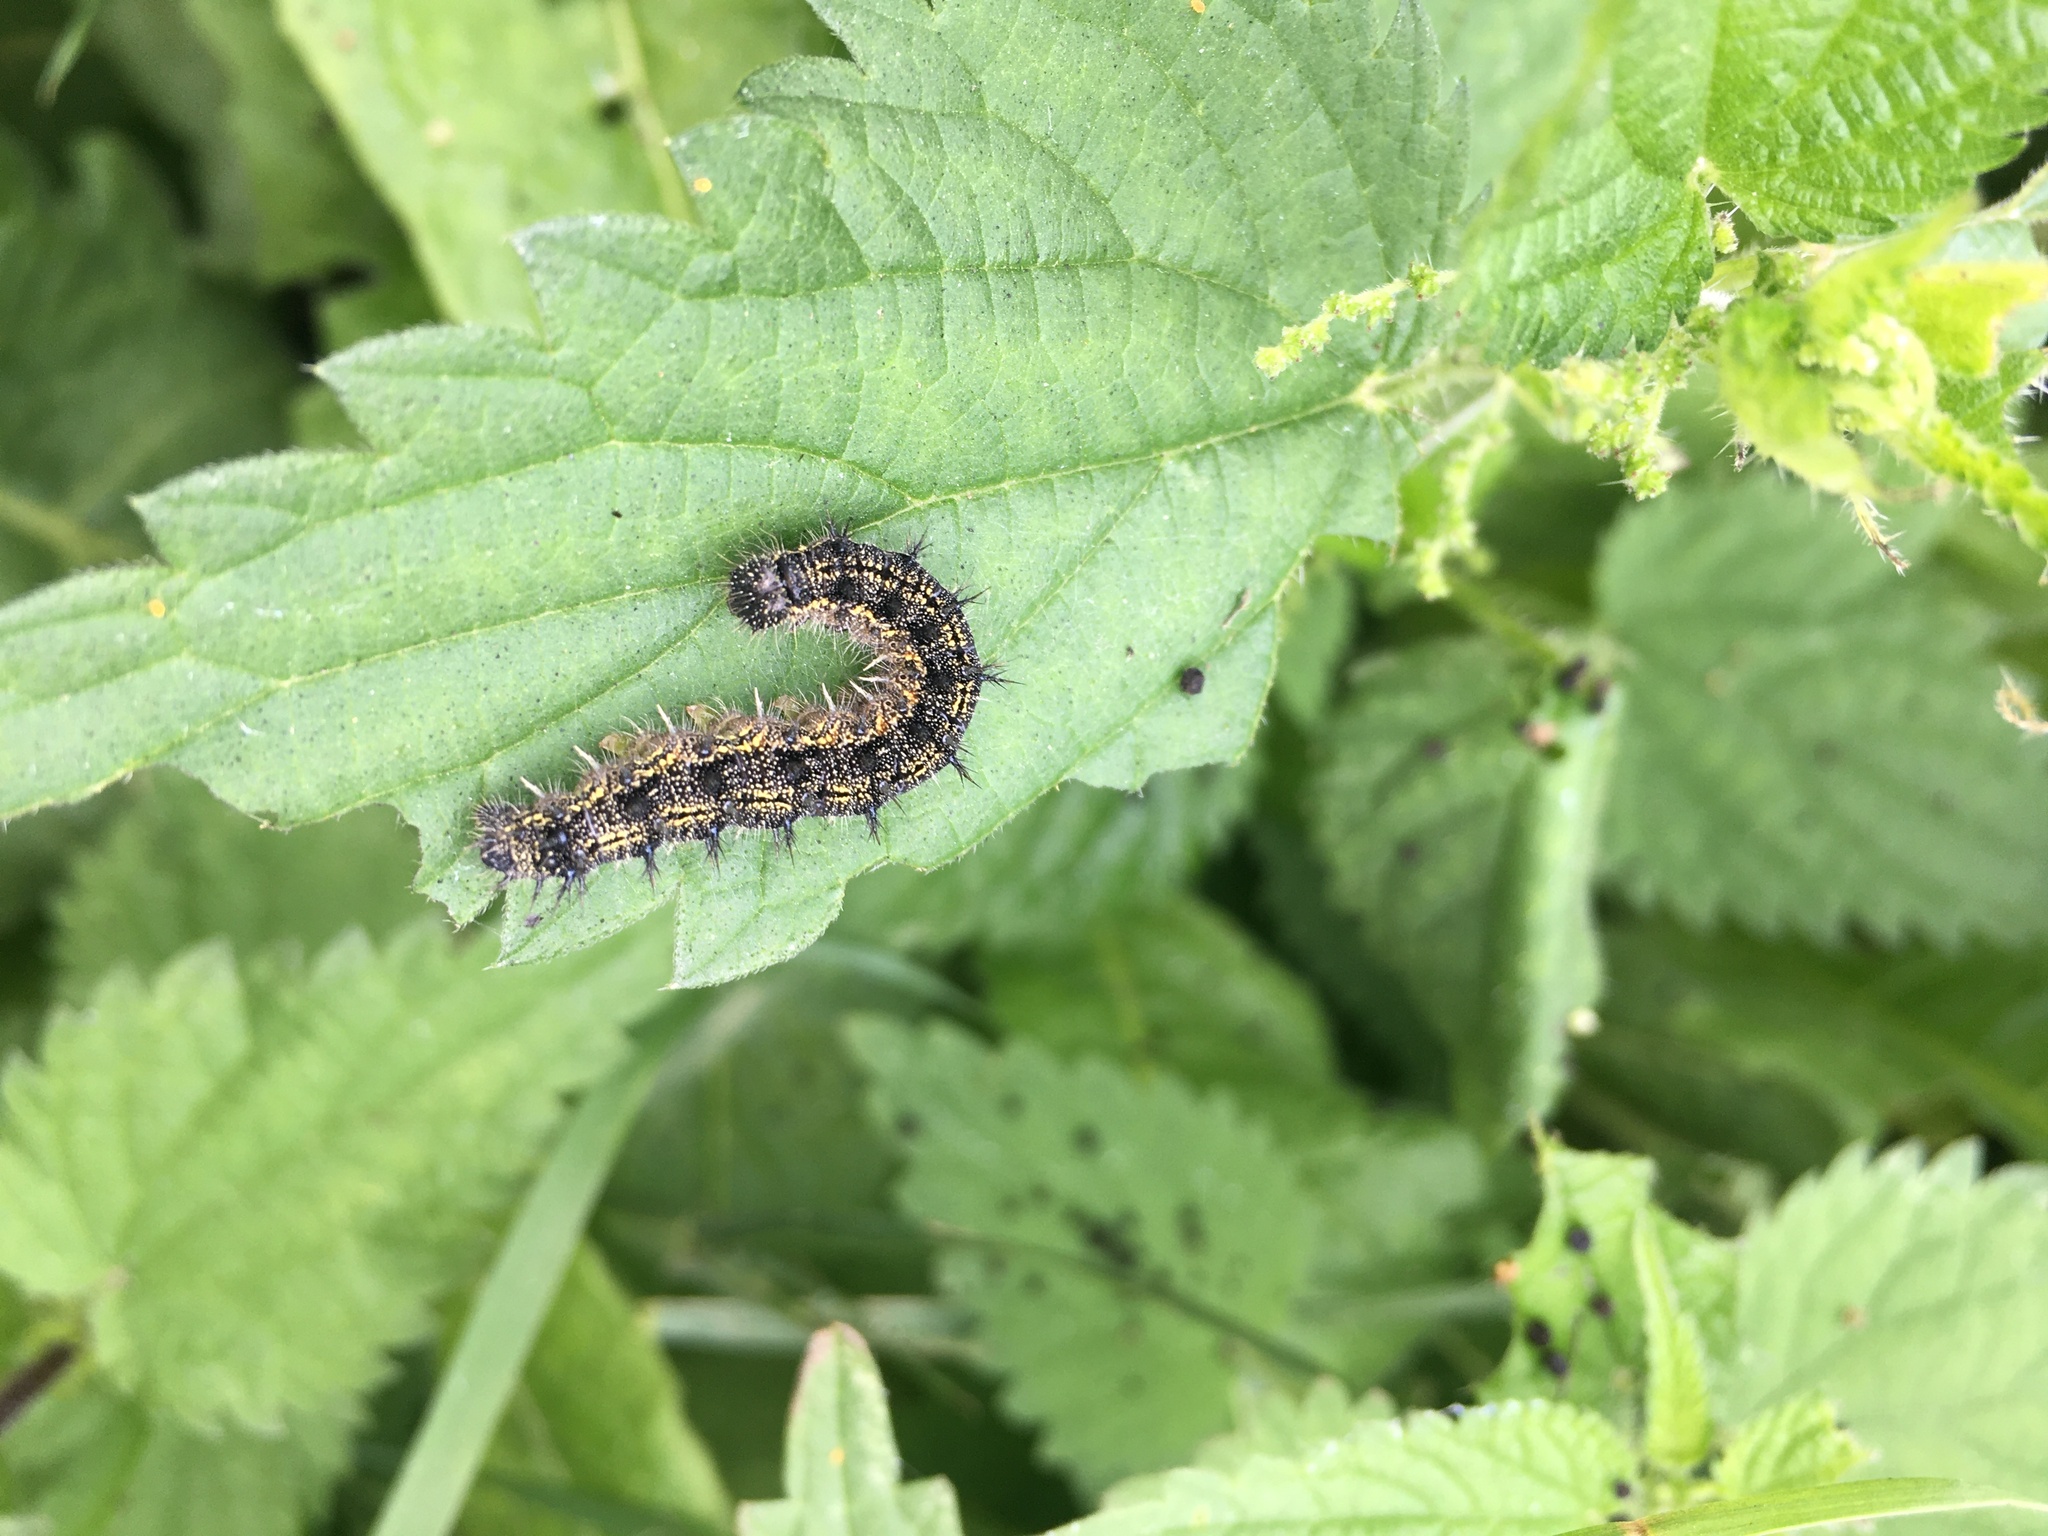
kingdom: Animalia
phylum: Arthropoda
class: Insecta
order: Lepidoptera
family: Nymphalidae
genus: Aglais
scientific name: Aglais urticae
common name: Small tortoiseshell
